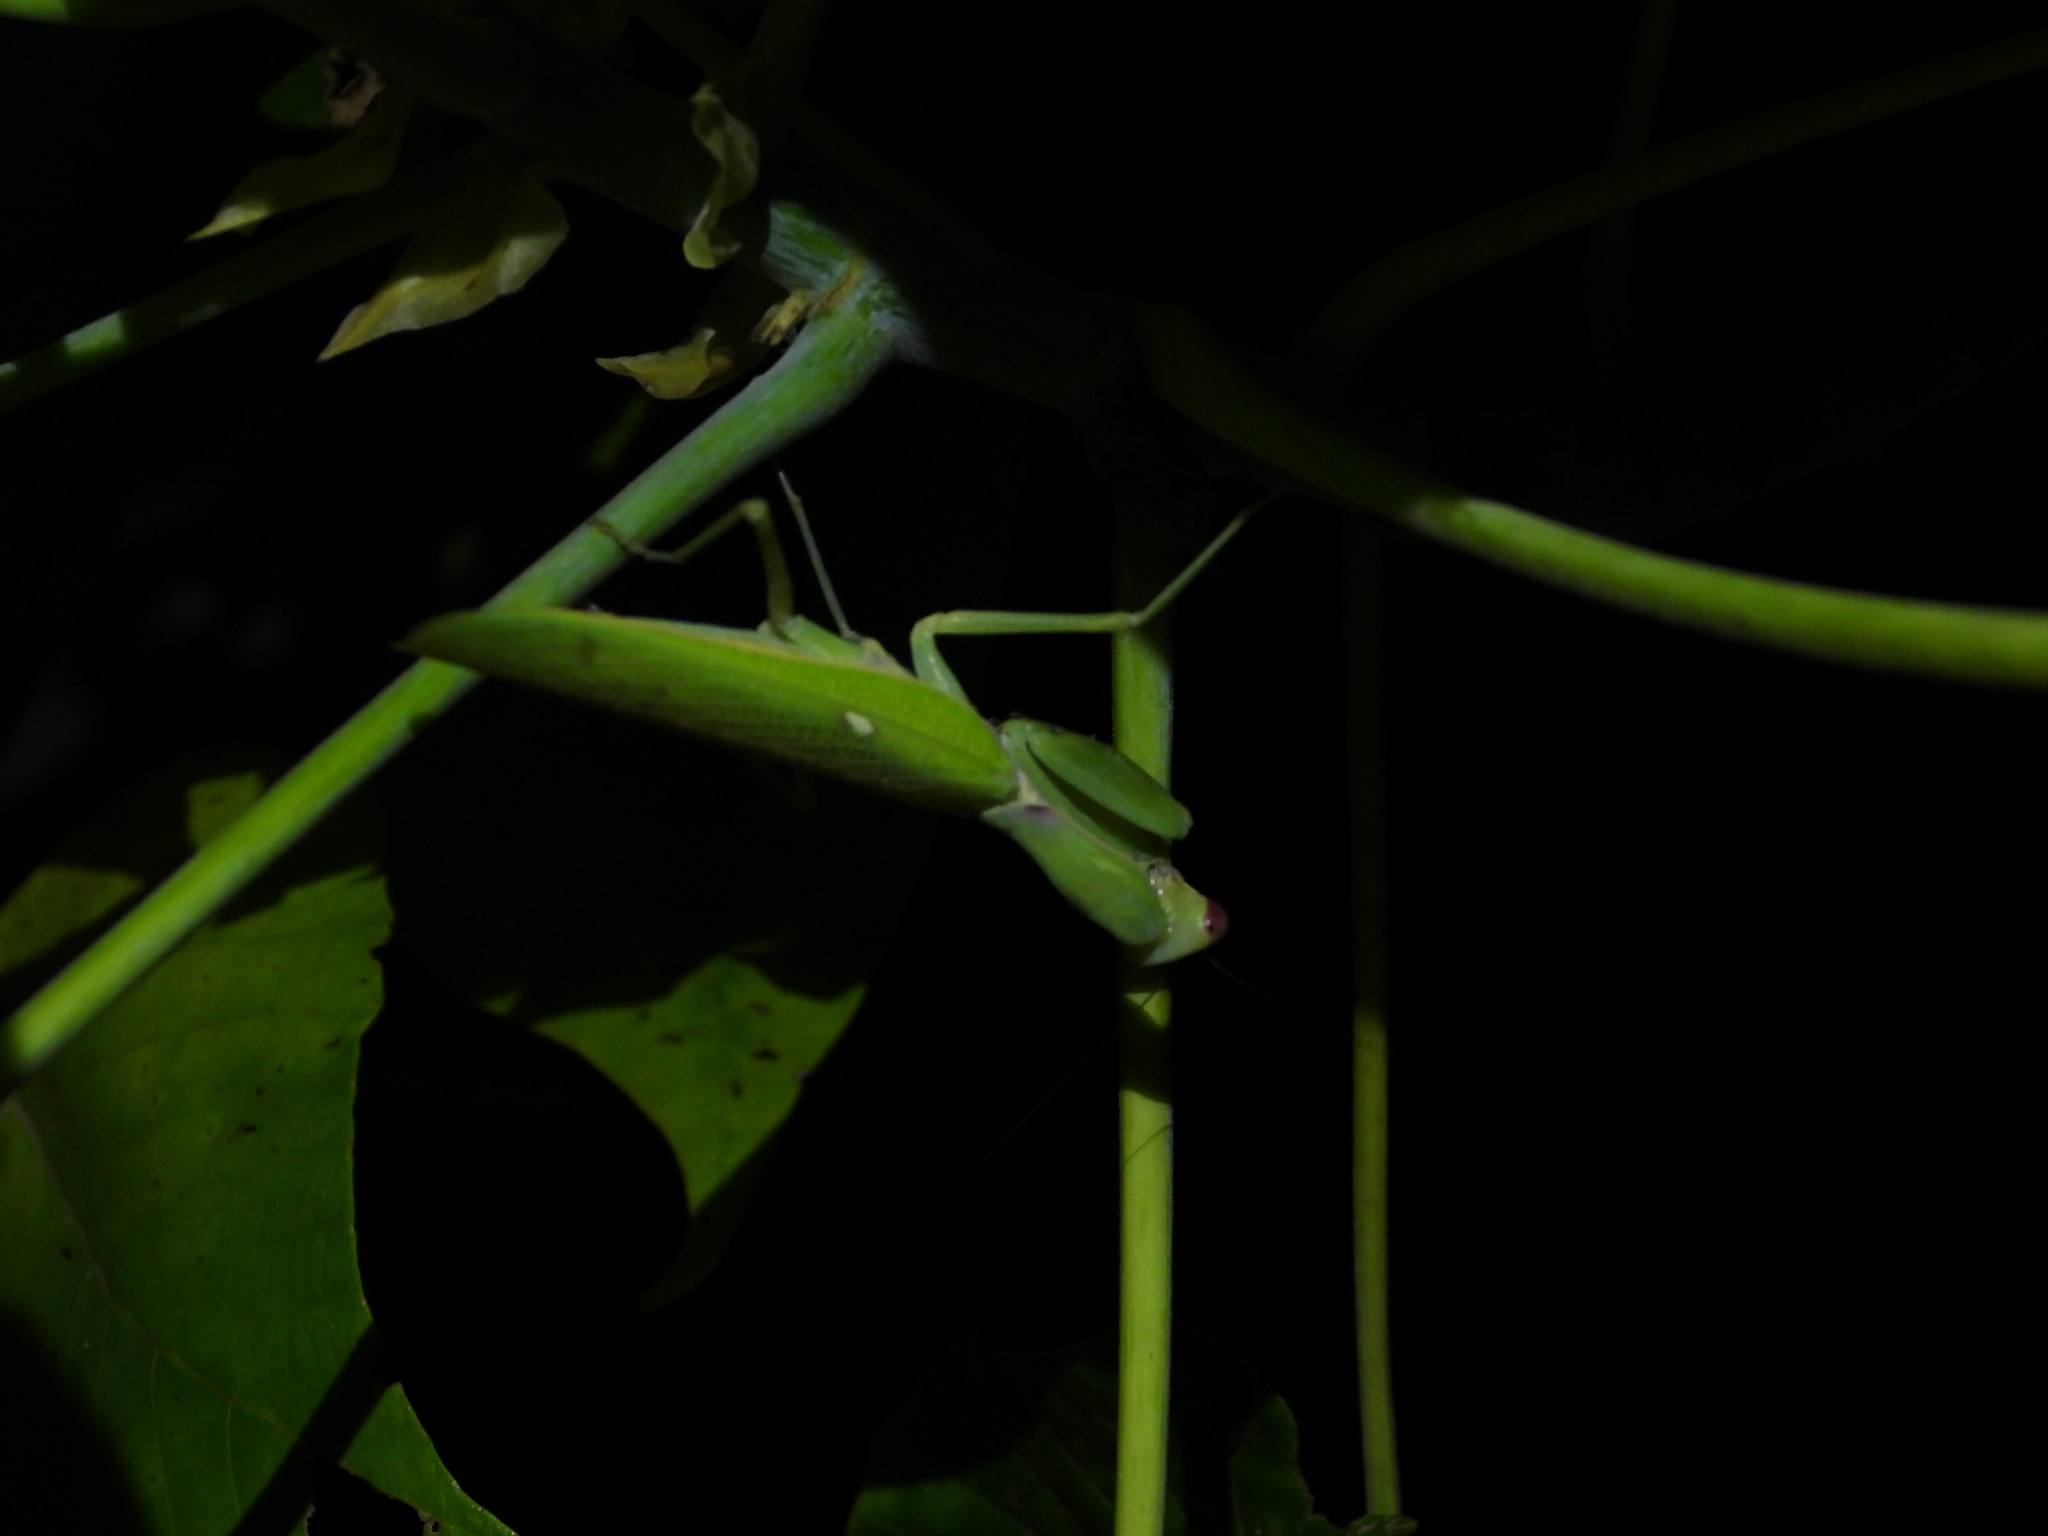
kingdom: Animalia
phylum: Arthropoda
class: Insecta
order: Mantodea
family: Mantidae
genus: Hierodula
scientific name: Hierodula patellifera
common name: Asian mantis
